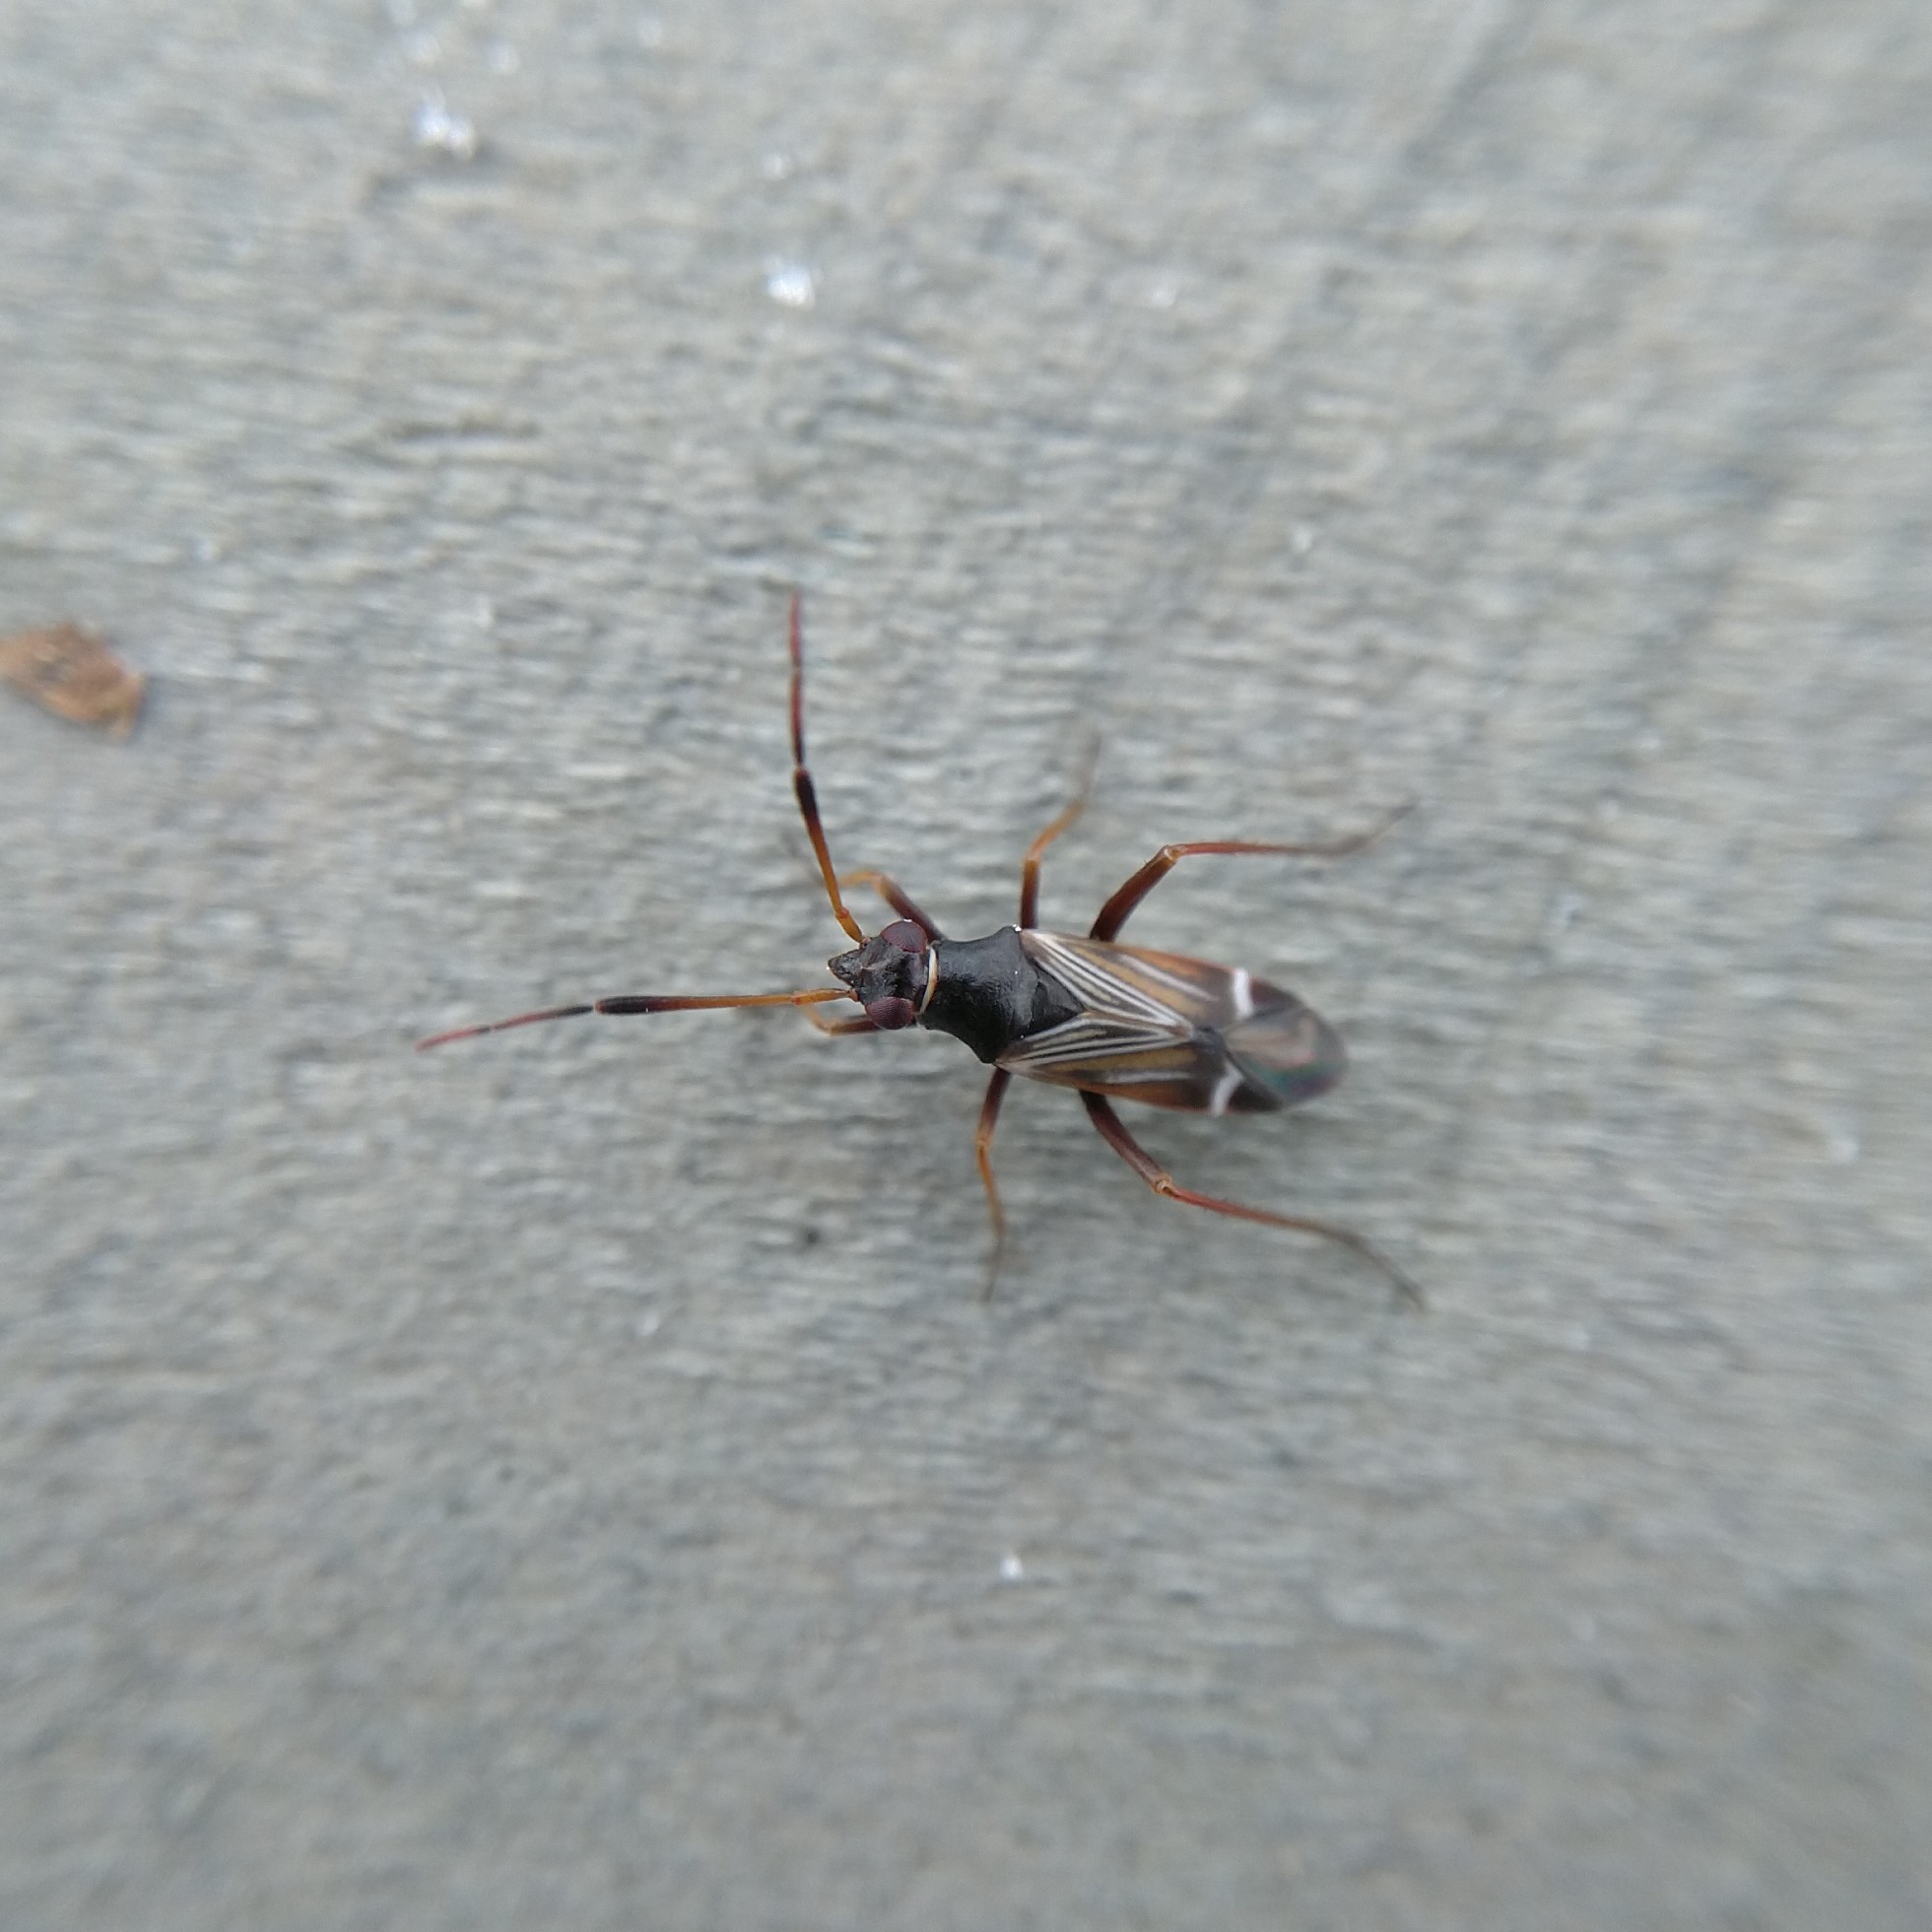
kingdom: Animalia
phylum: Arthropoda
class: Insecta
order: Hemiptera
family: Miridae
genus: Cremnocephalus
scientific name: Cremnocephalus albolineatus
